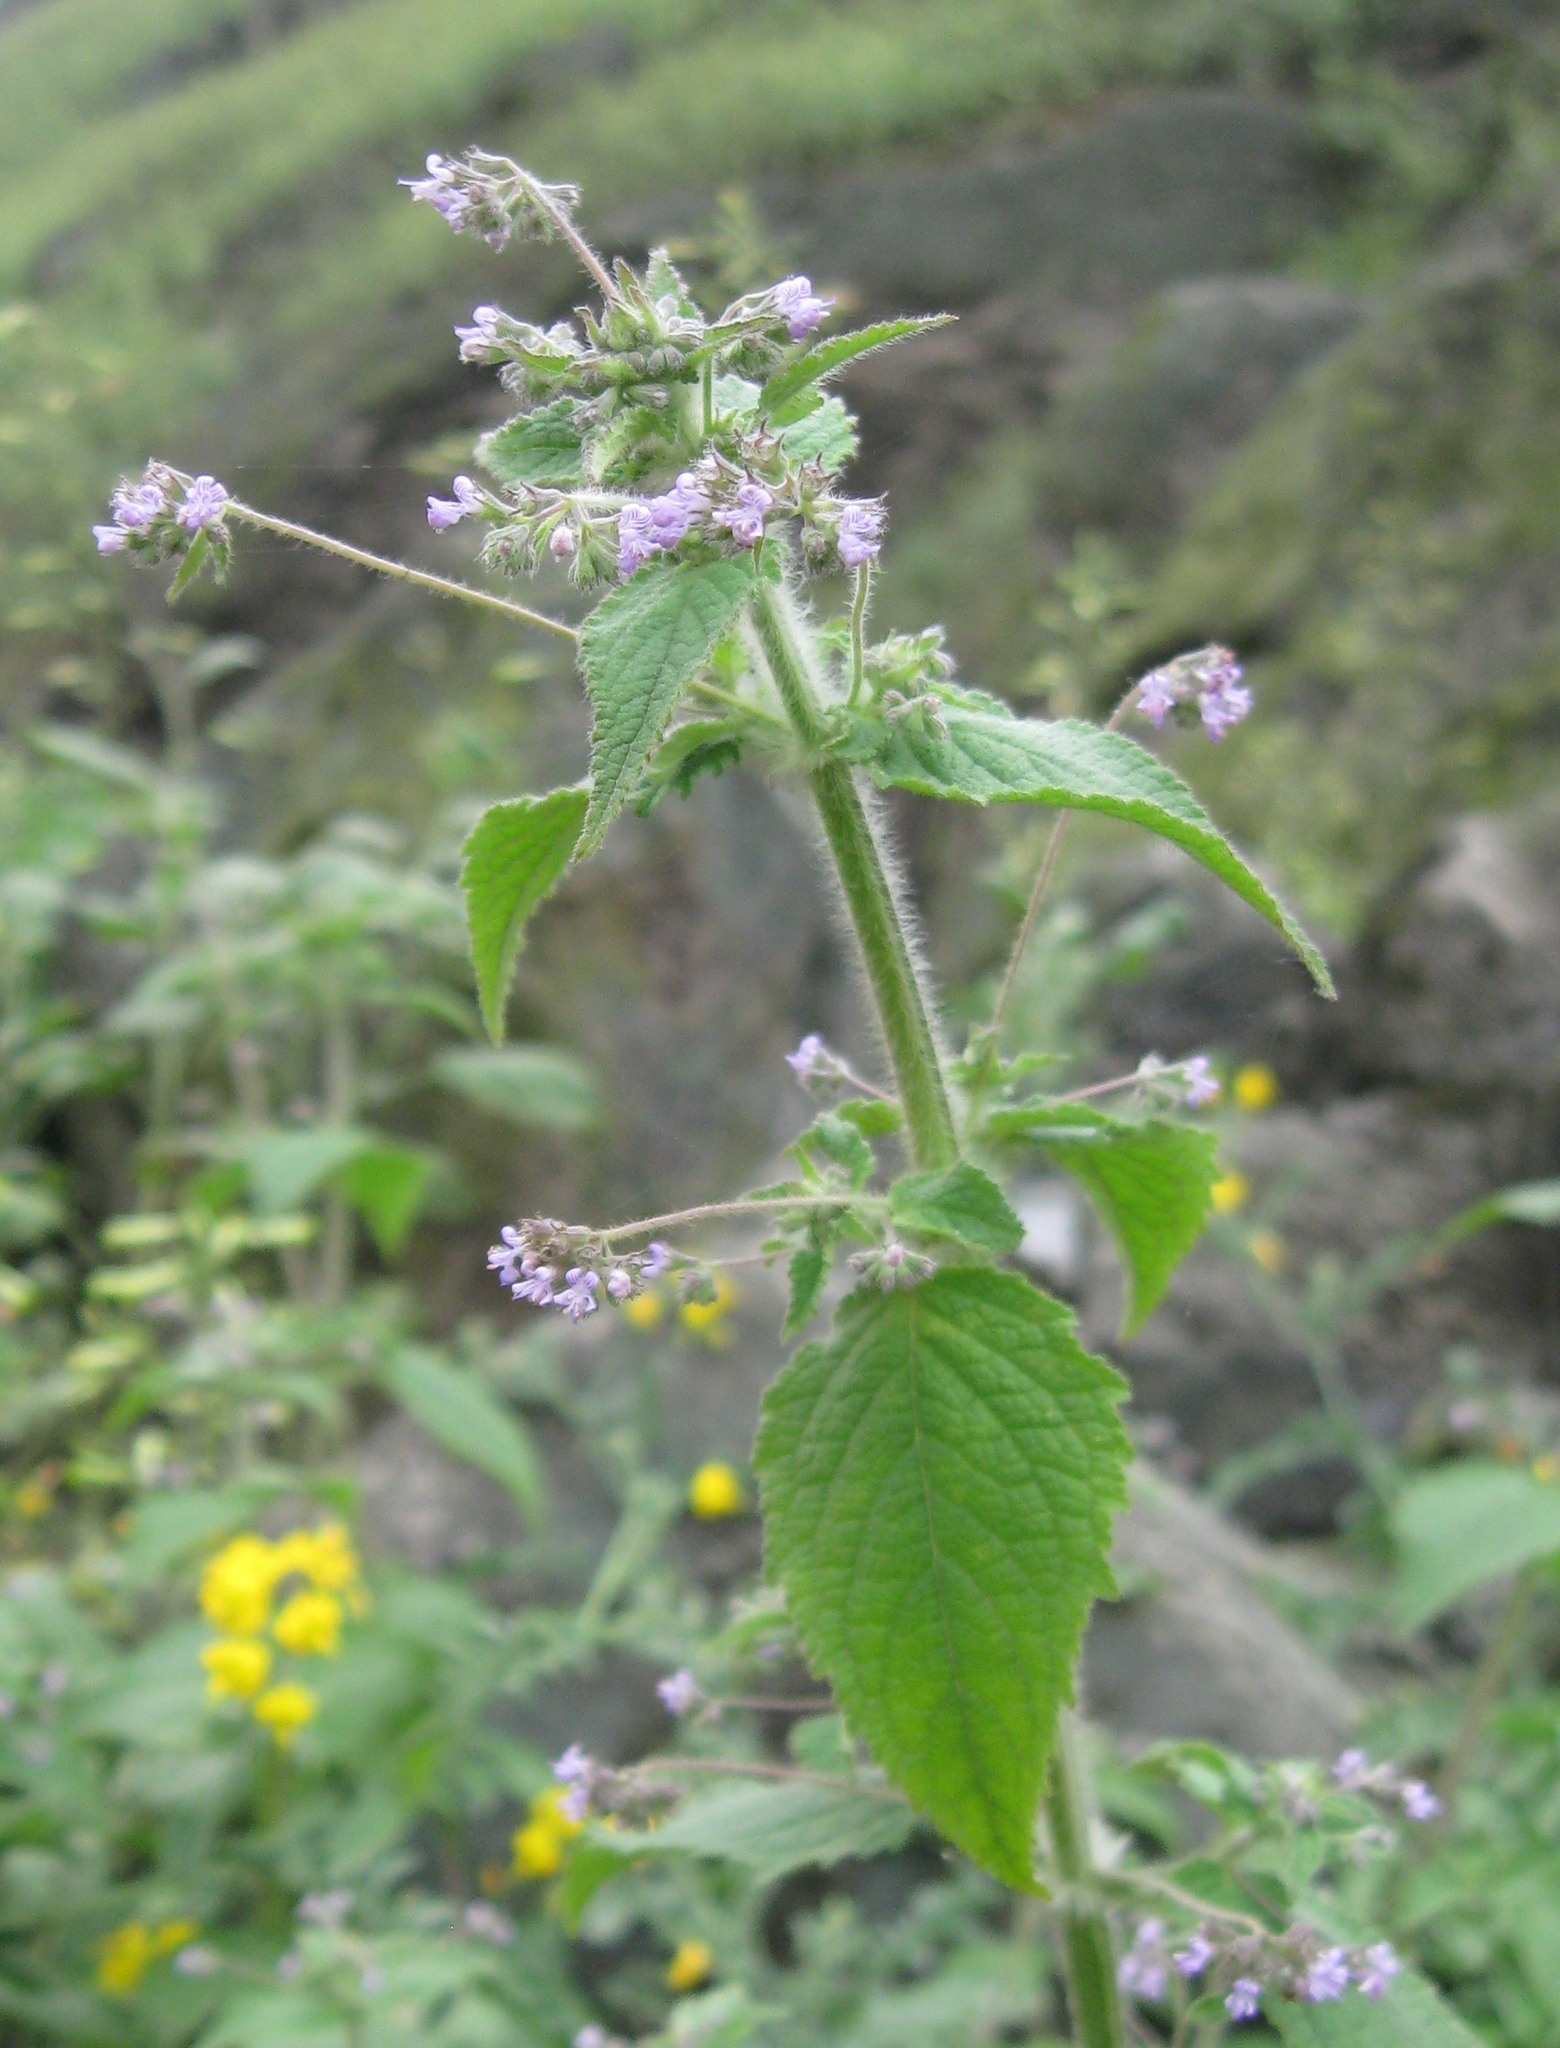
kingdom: Plantae
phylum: Tracheophyta
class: Magnoliopsida
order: Lamiales
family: Lamiaceae
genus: Mesosphaerum
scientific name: Mesosphaerum sidifolium
